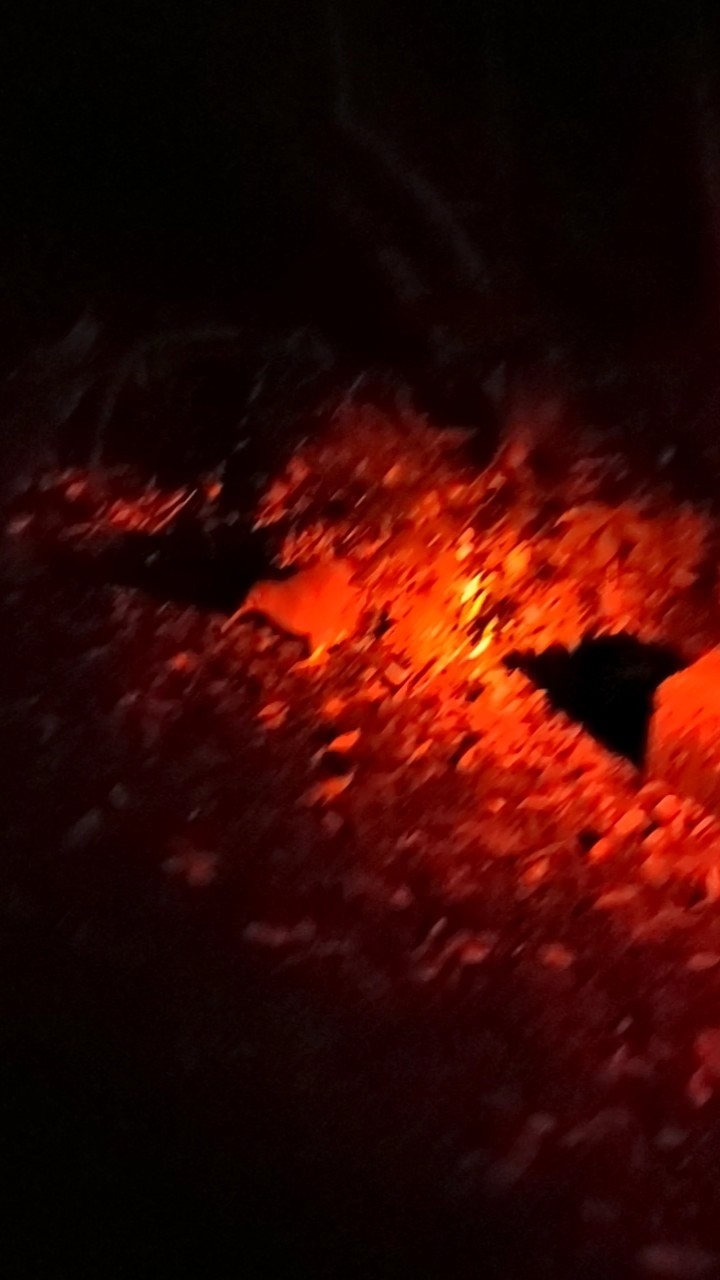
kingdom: Animalia
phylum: Chordata
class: Aves
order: Apterygiformes
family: Apterygidae
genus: Apteryx
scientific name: Apteryx owenii
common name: Little spotted kiwi
